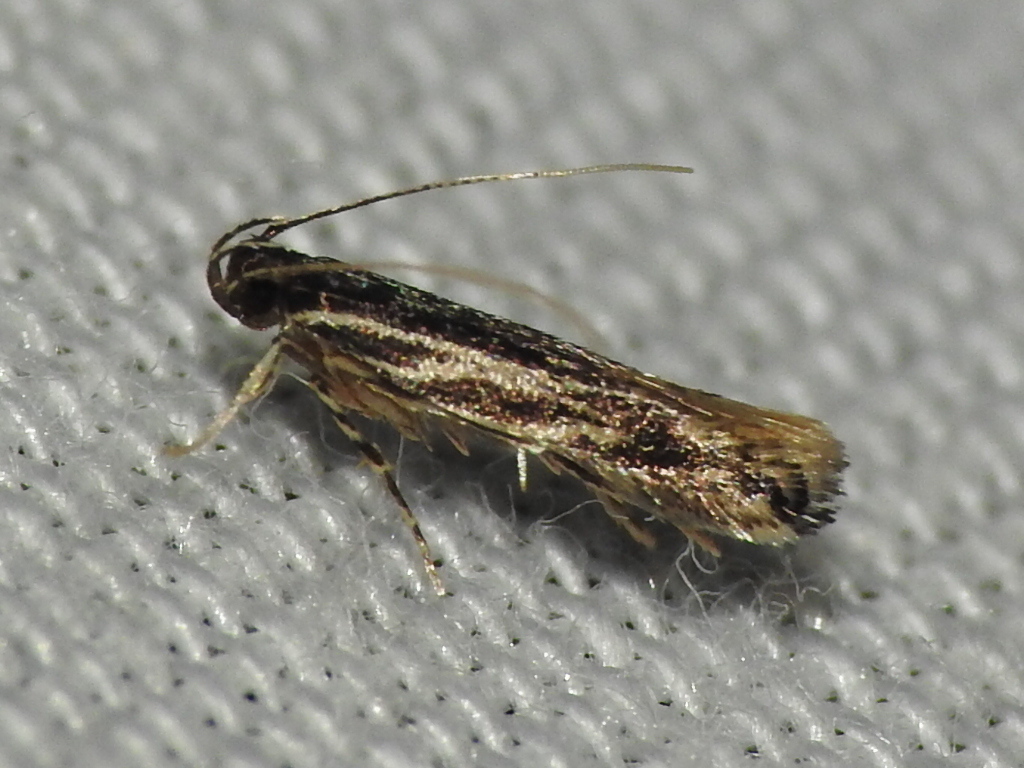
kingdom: Animalia
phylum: Arthropoda
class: Insecta
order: Lepidoptera
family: Cosmopterigidae
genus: Eralea
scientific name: Eralea albalineella
